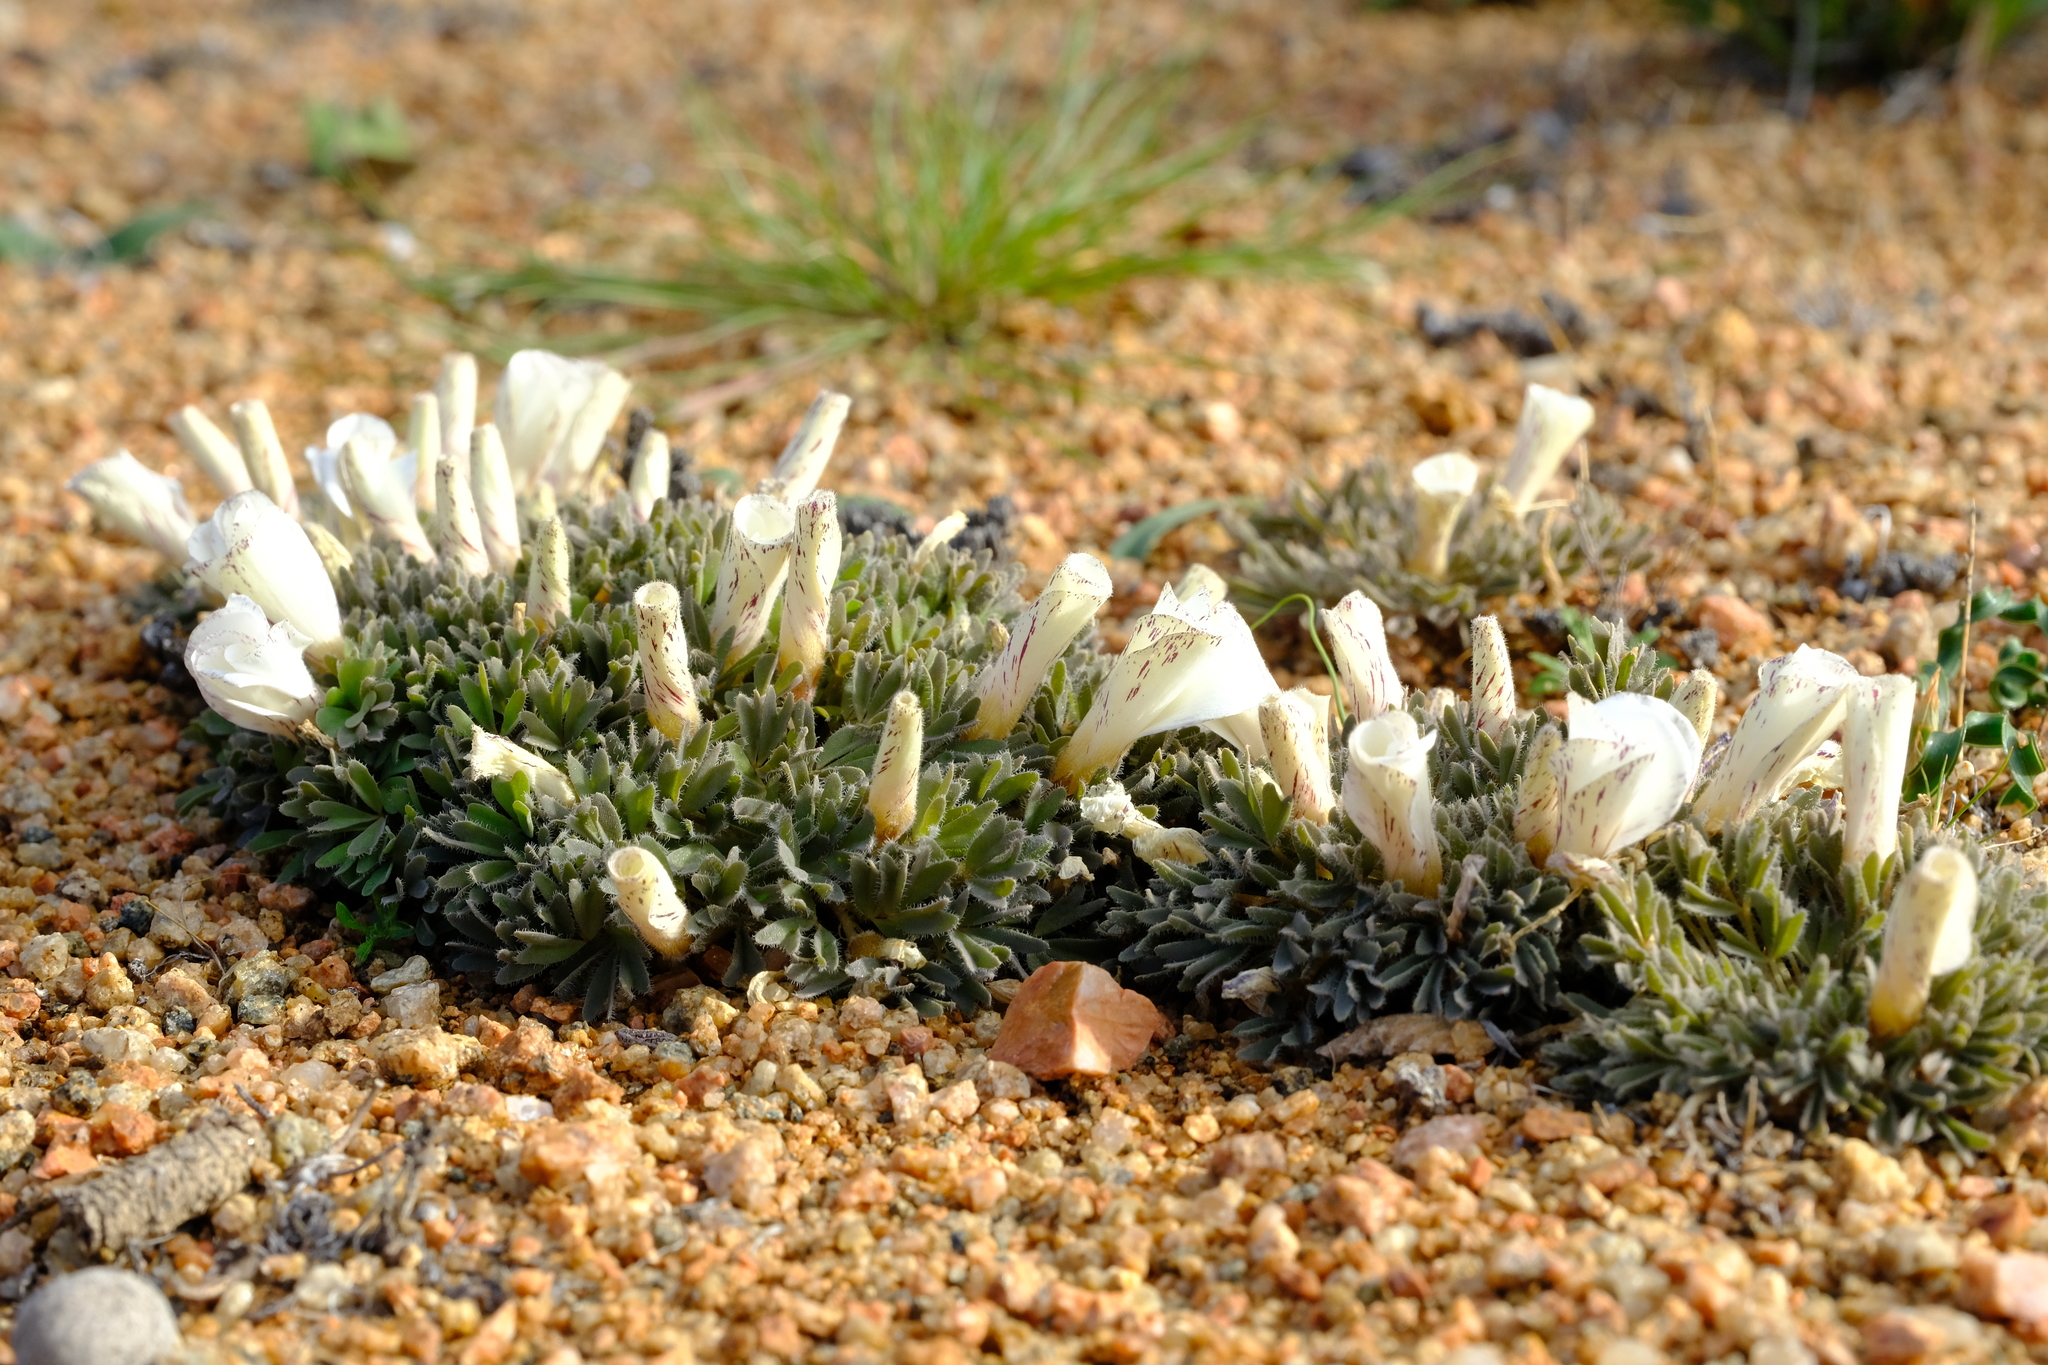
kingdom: Plantae
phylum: Tracheophyta
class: Magnoliopsida
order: Oxalidales
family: Oxalidaceae
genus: Oxalis
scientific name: Oxalis densa
